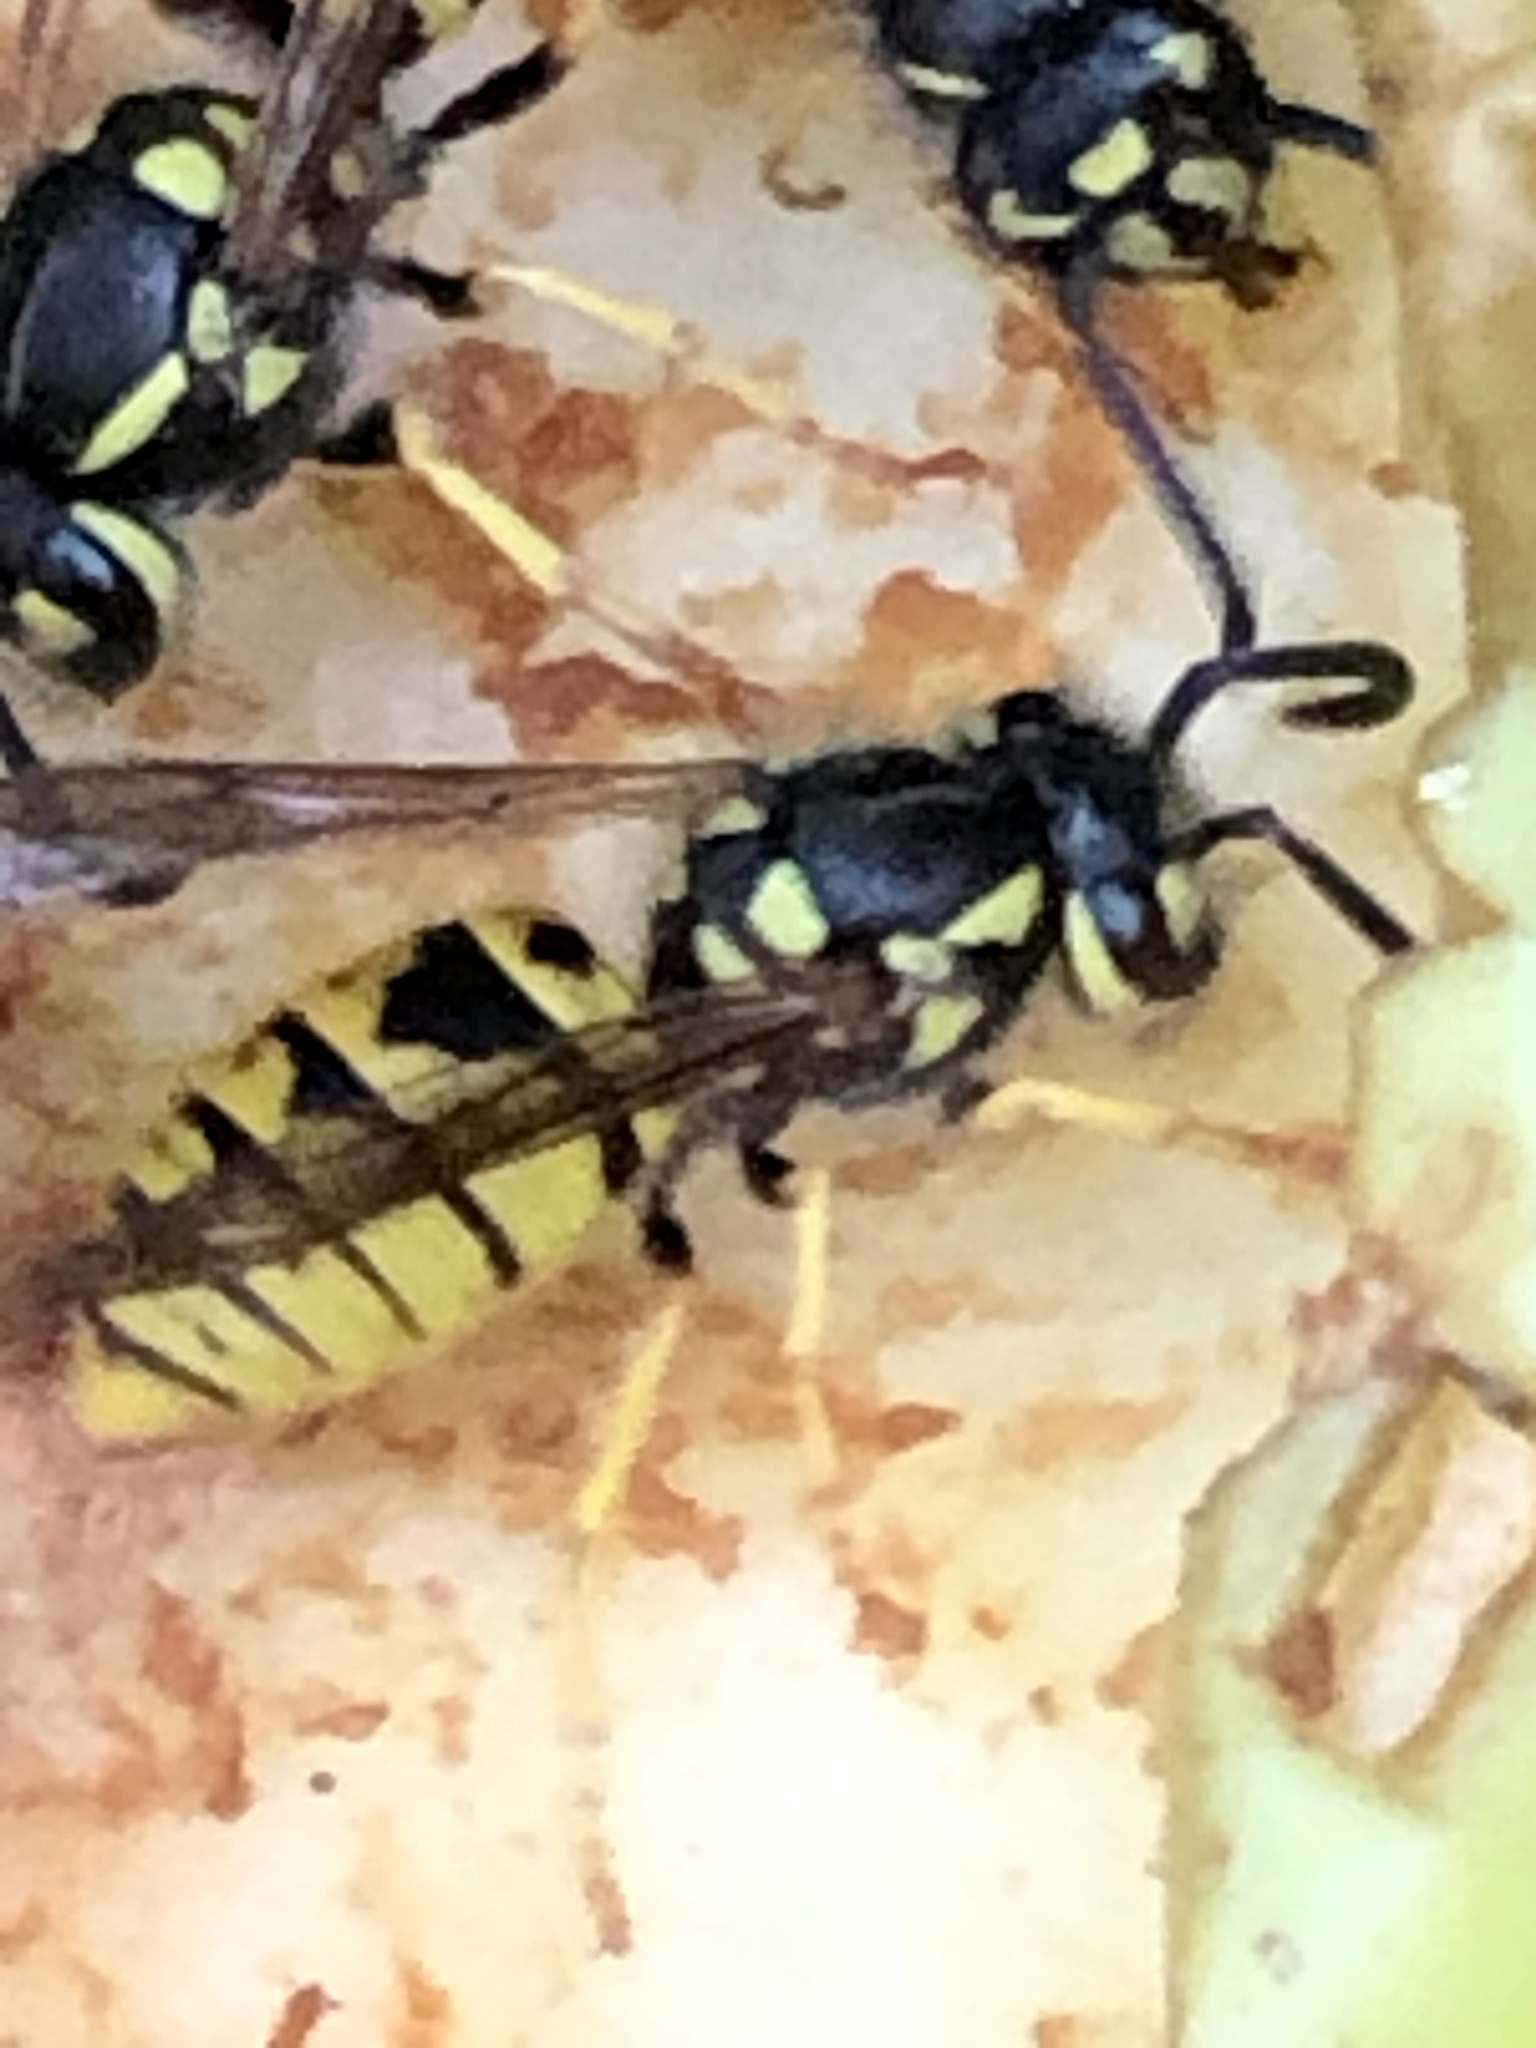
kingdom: Animalia
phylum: Arthropoda
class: Insecta
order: Hymenoptera
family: Vespidae
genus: Vespula
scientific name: Vespula germanica
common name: German wasp
